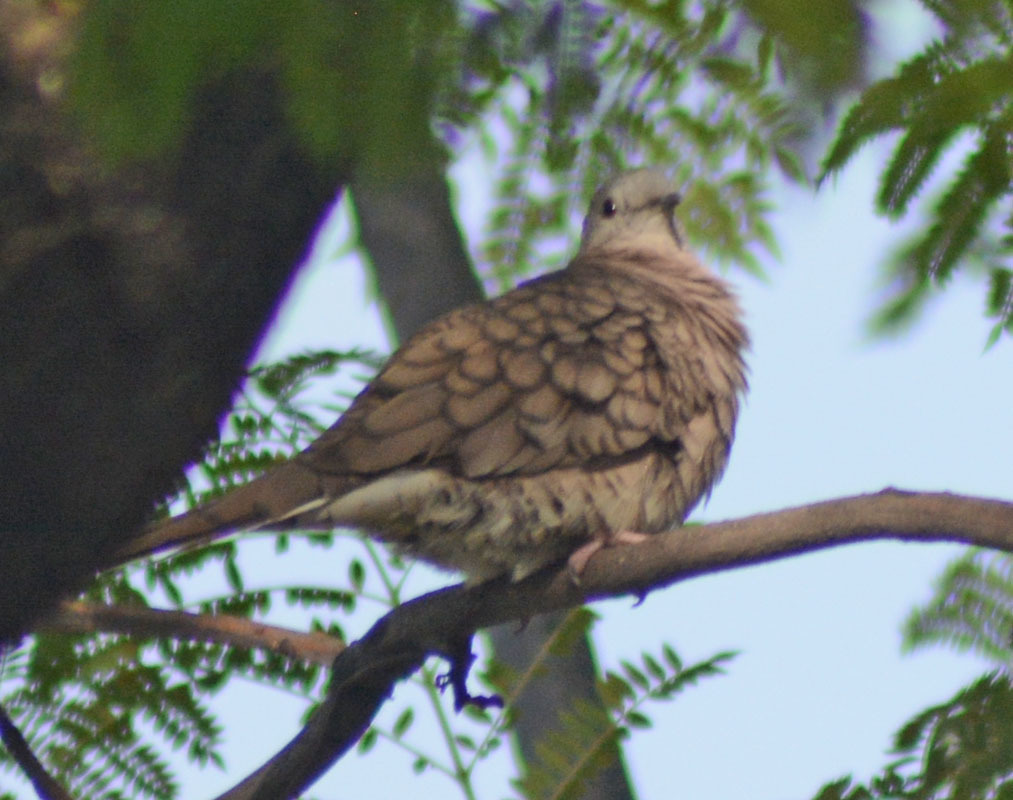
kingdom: Animalia
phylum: Chordata
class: Aves
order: Columbiformes
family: Columbidae
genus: Columbina
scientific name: Columbina inca
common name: Inca dove
